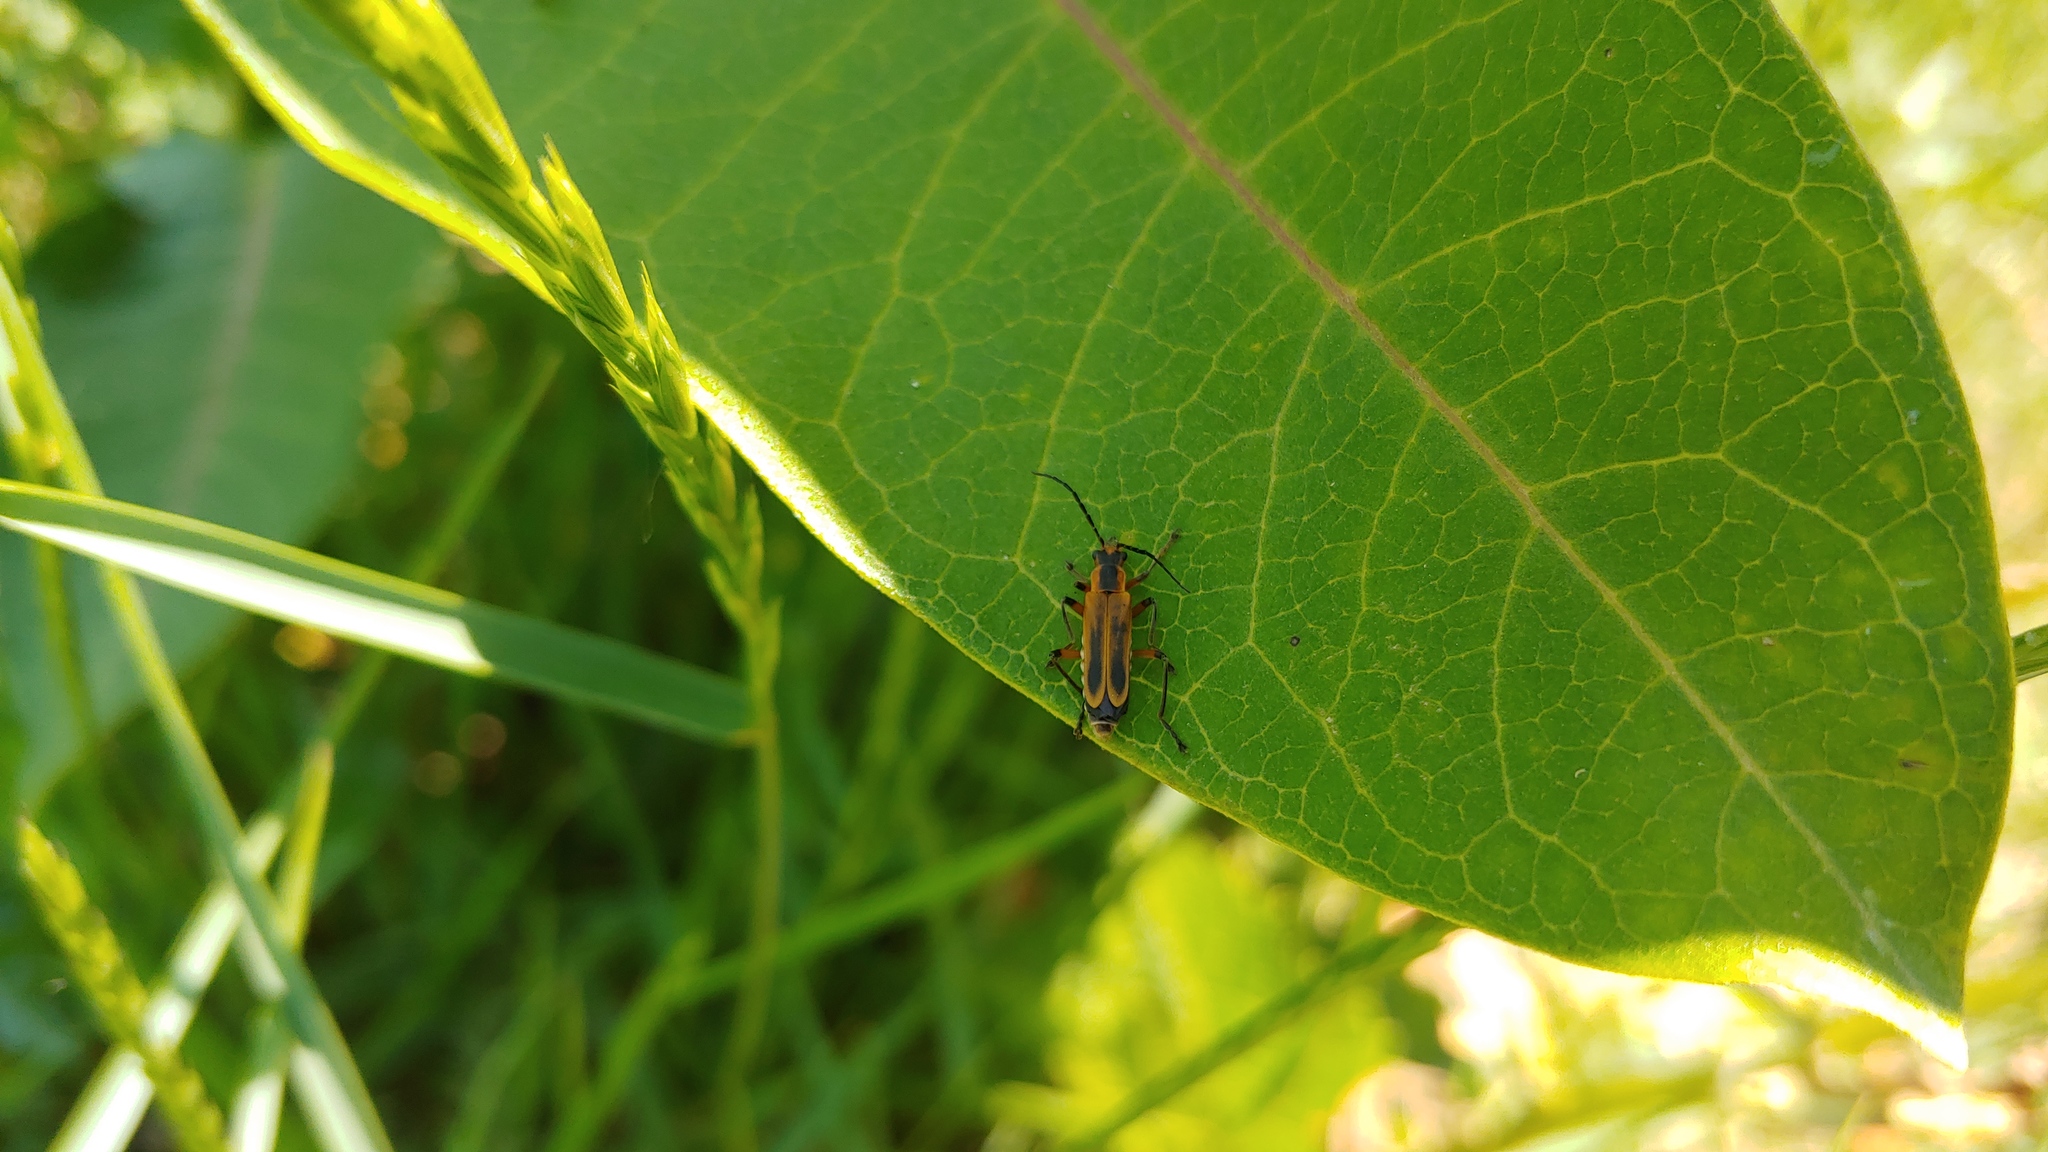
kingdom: Animalia
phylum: Arthropoda
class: Insecta
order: Coleoptera
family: Cantharidae
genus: Chauliognathus
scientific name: Chauliognathus marginatus
